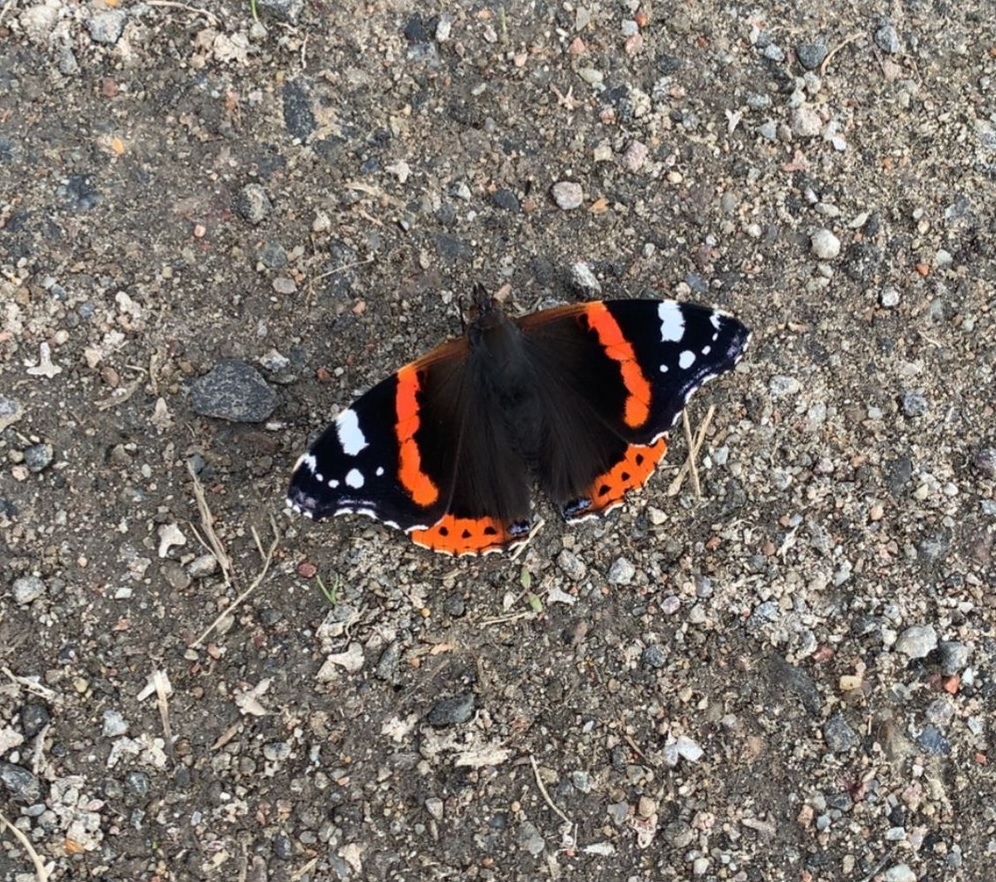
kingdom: Animalia
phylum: Arthropoda
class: Insecta
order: Lepidoptera
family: Nymphalidae
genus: Vanessa
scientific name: Vanessa atalanta
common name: Red admiral
